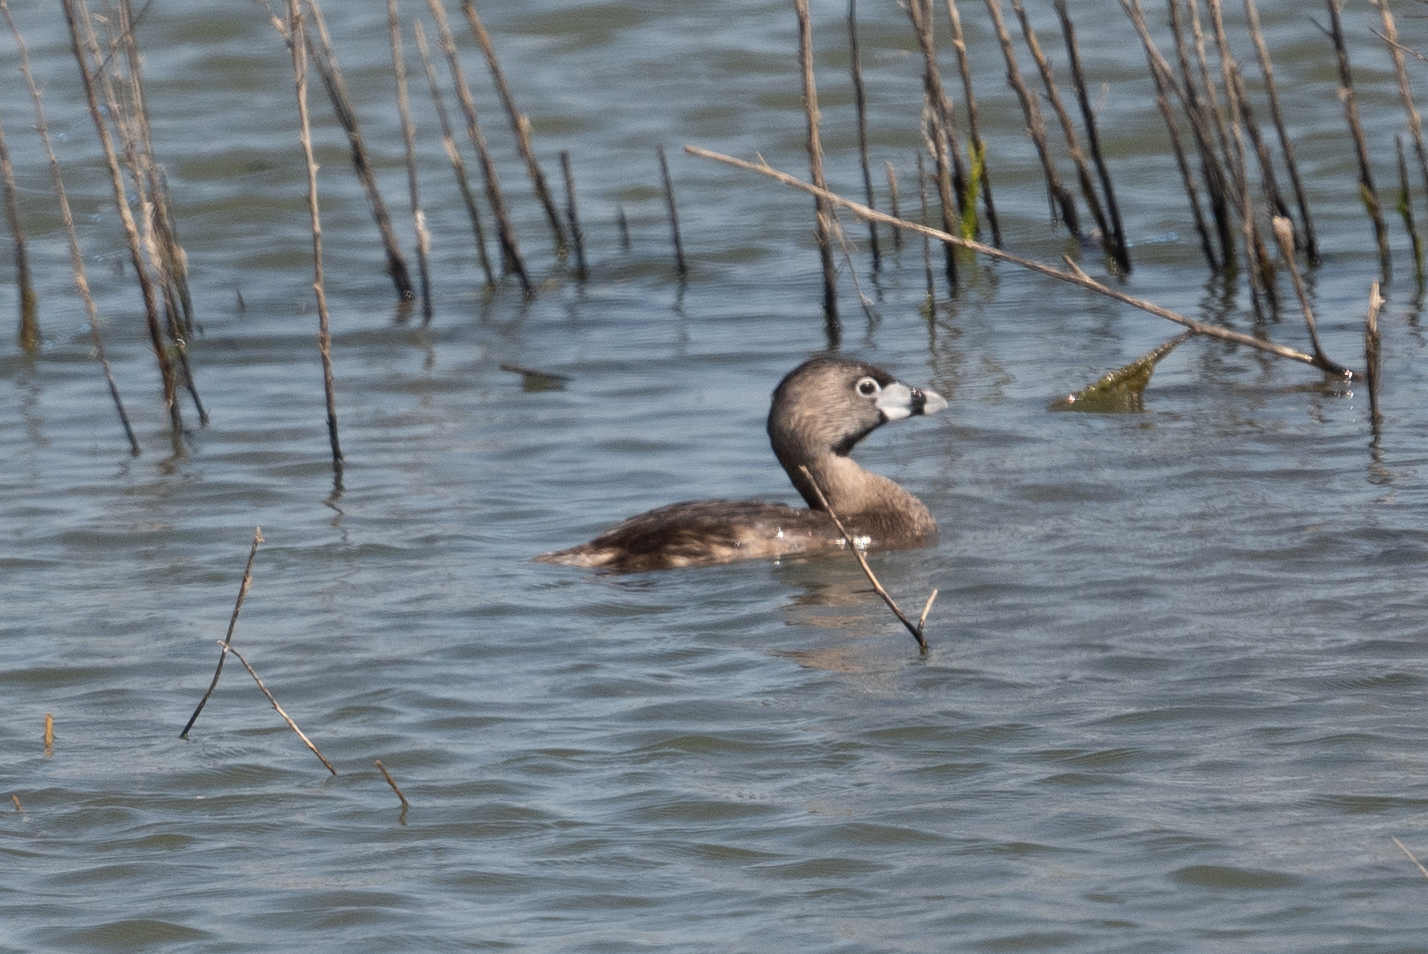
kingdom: Animalia
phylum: Chordata
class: Aves
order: Podicipediformes
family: Podicipedidae
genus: Podilymbus
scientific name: Podilymbus podiceps
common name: Pied-billed grebe
